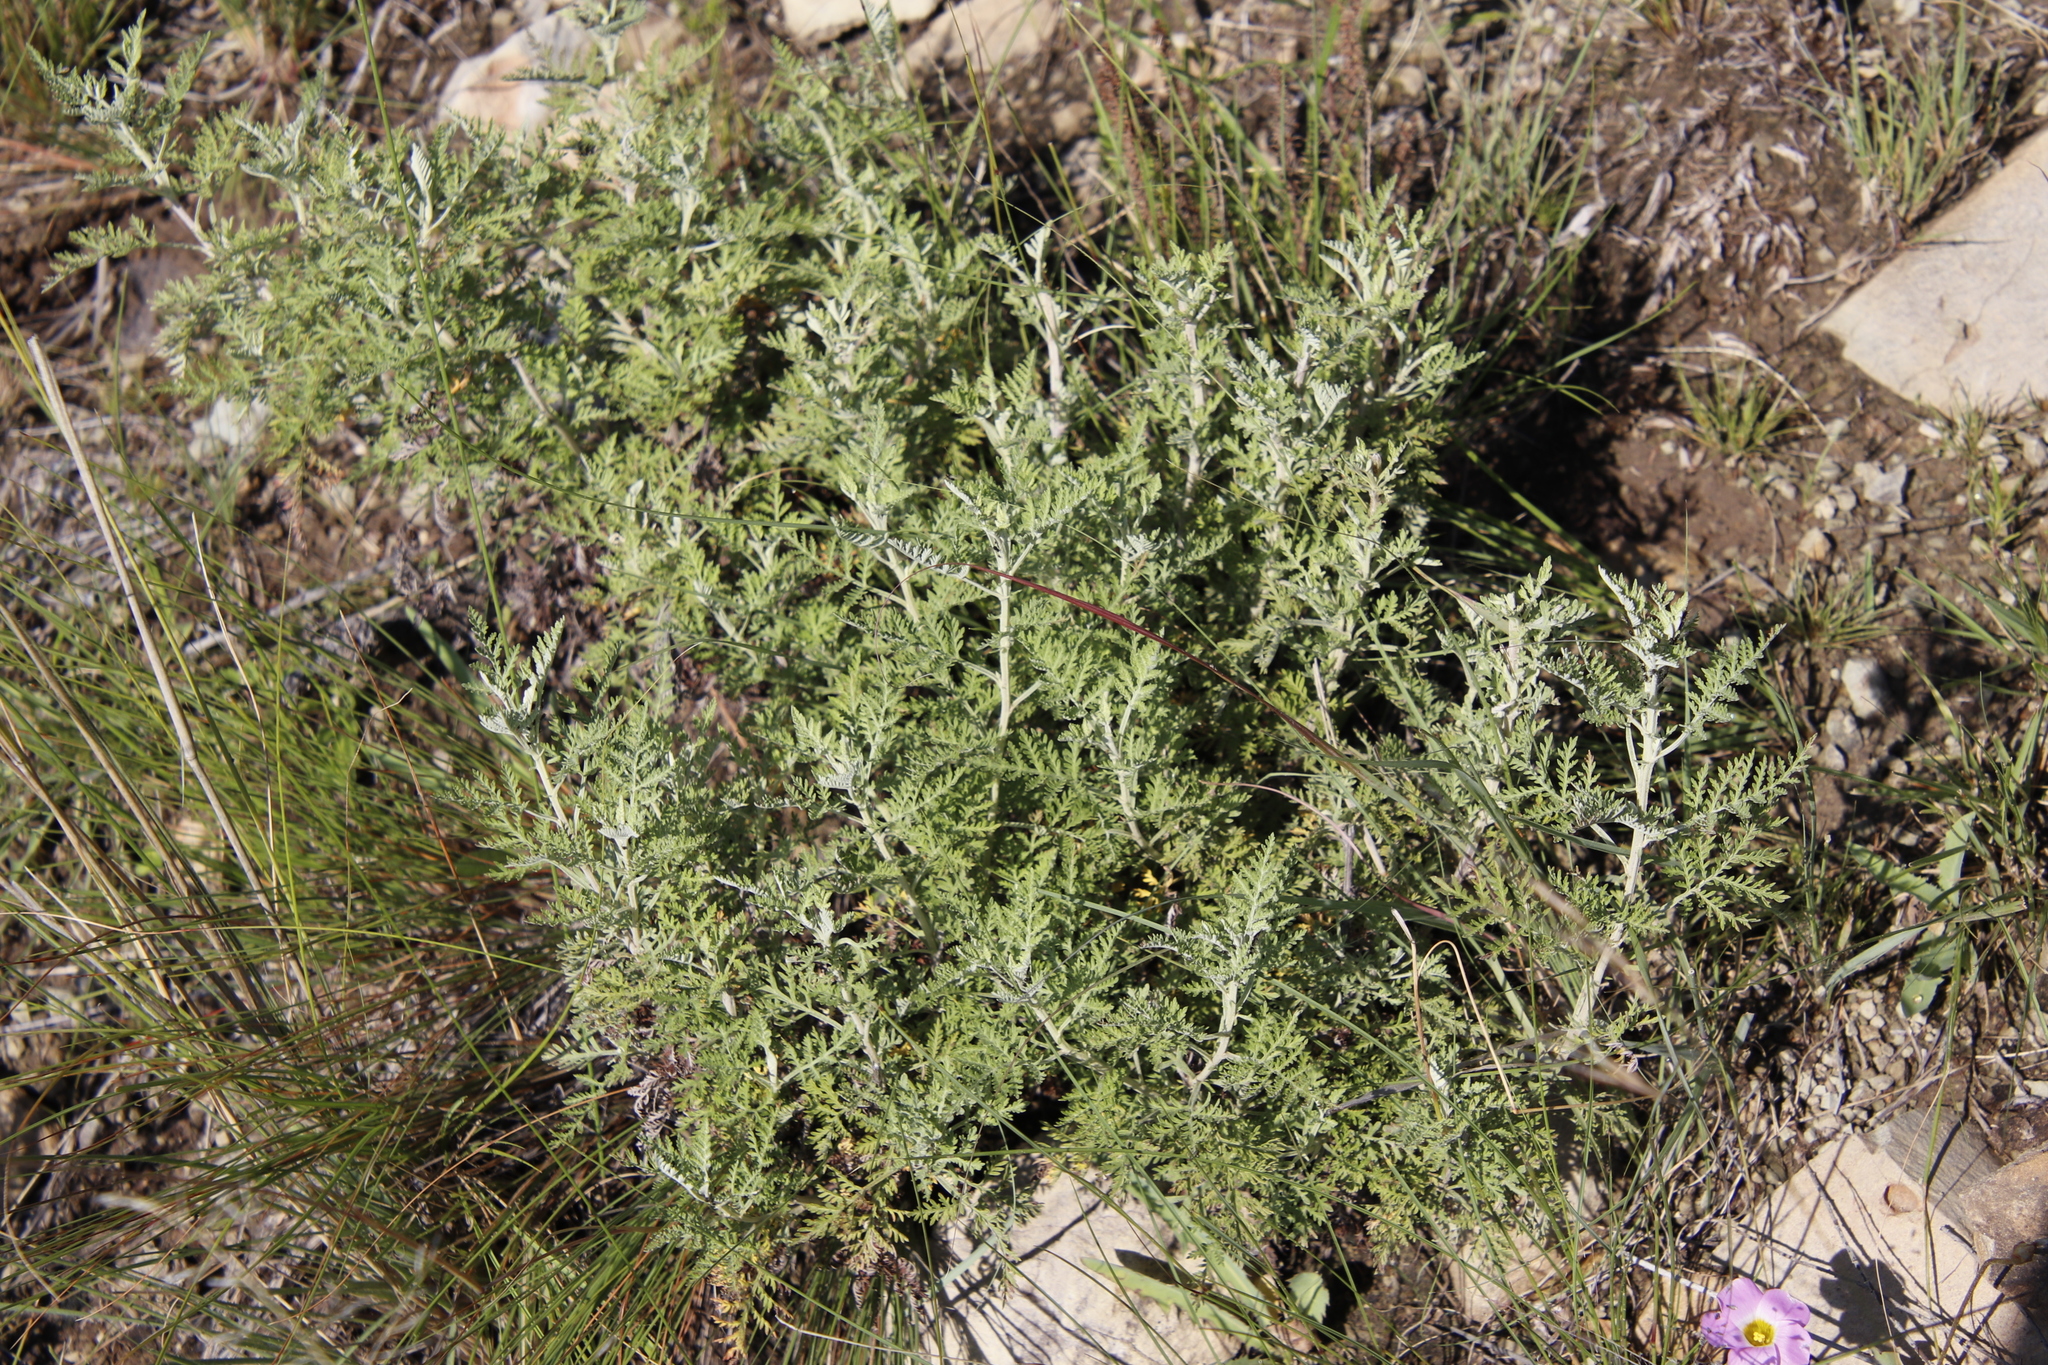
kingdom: Plantae
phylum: Tracheophyta
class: Magnoliopsida
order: Asterales
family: Asteraceae
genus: Artemisia
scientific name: Artemisia afra
